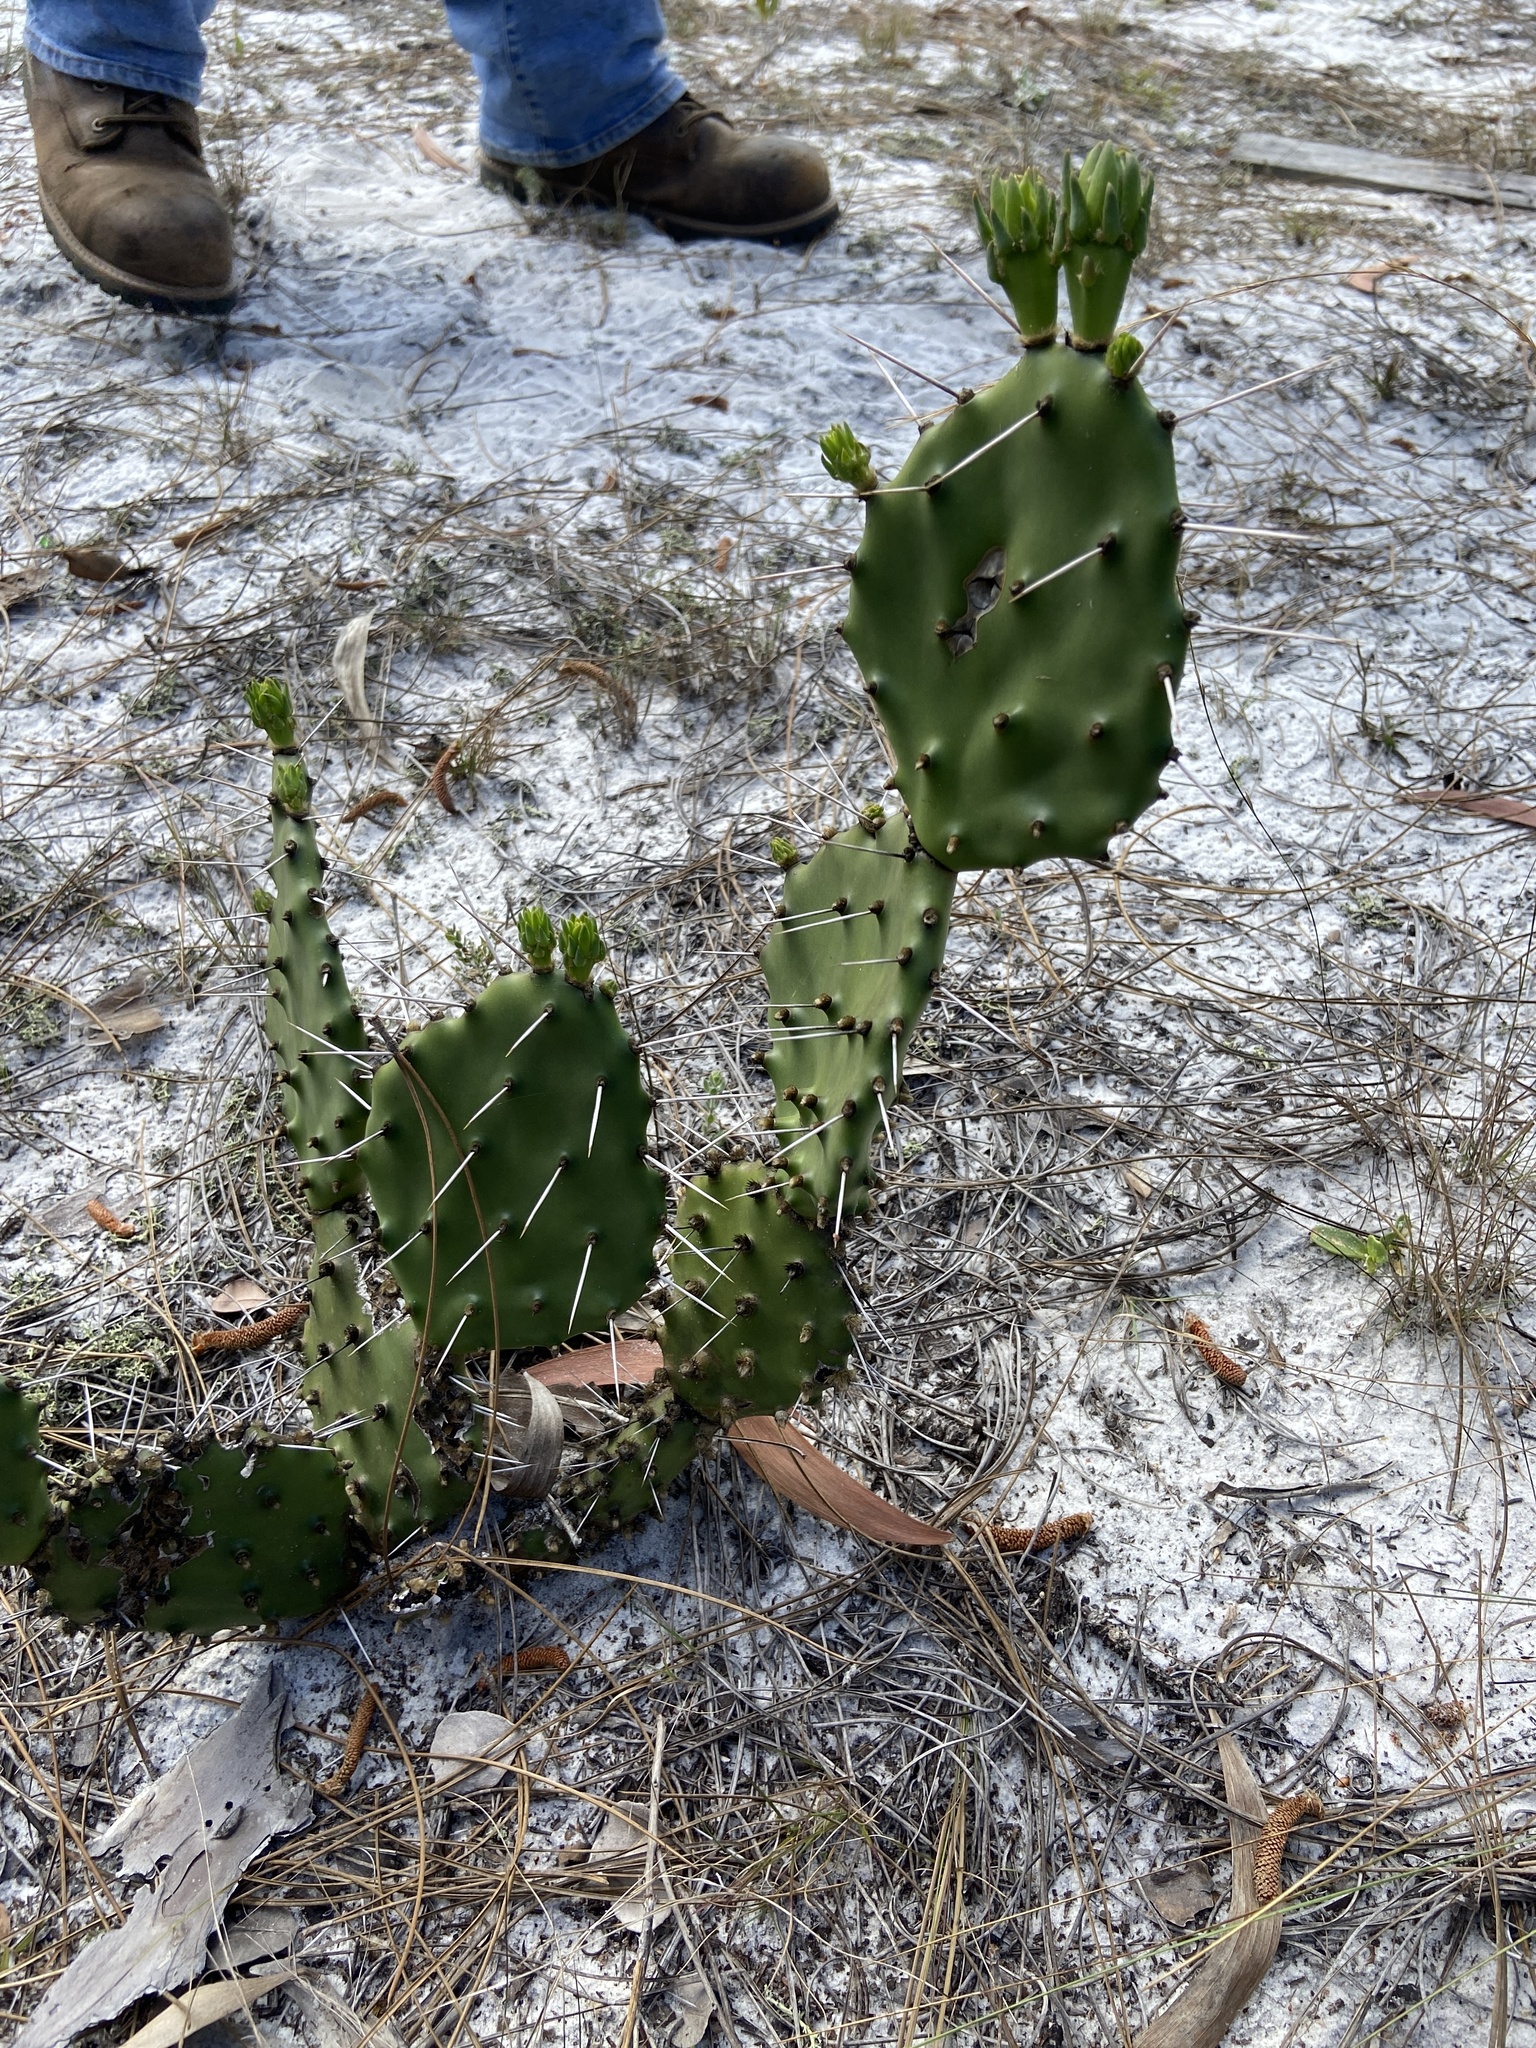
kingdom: Plantae
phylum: Tracheophyta
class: Magnoliopsida
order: Caryophyllales
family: Cactaceae
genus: Opuntia
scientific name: Opuntia austrina
